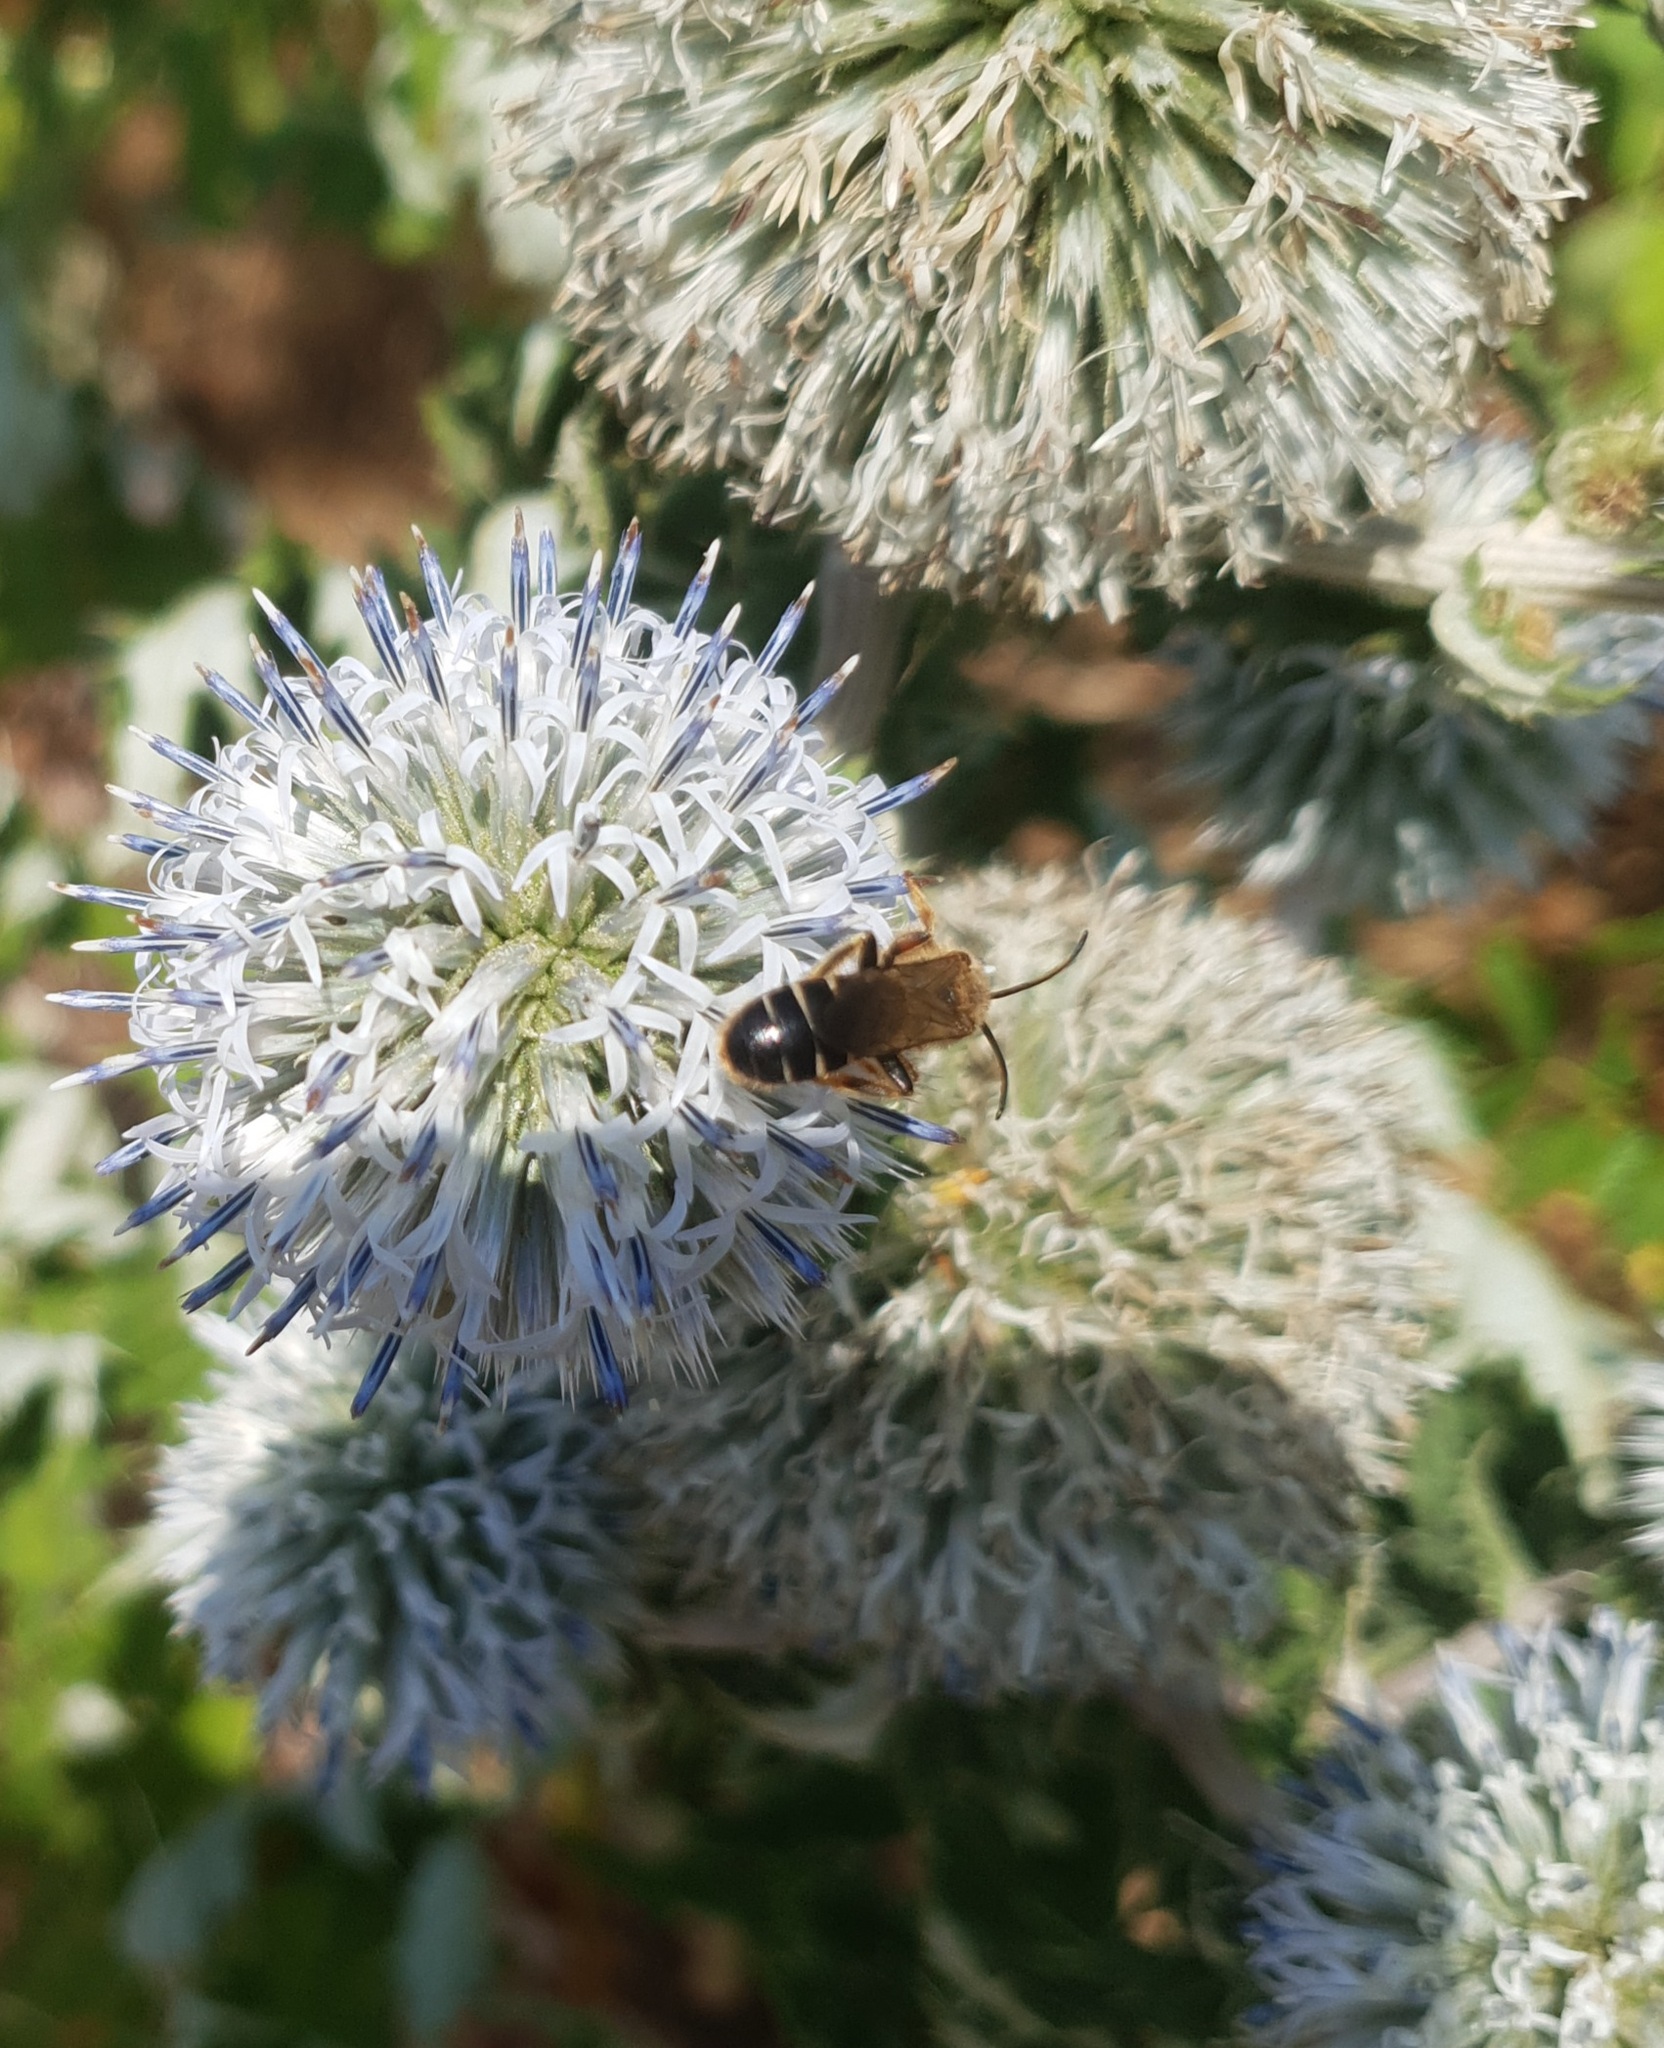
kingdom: Animalia
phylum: Arthropoda
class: Insecta
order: Hymenoptera
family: Halictidae
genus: Halictus
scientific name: Halictus quadricinctus
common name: Giant furrow bee
